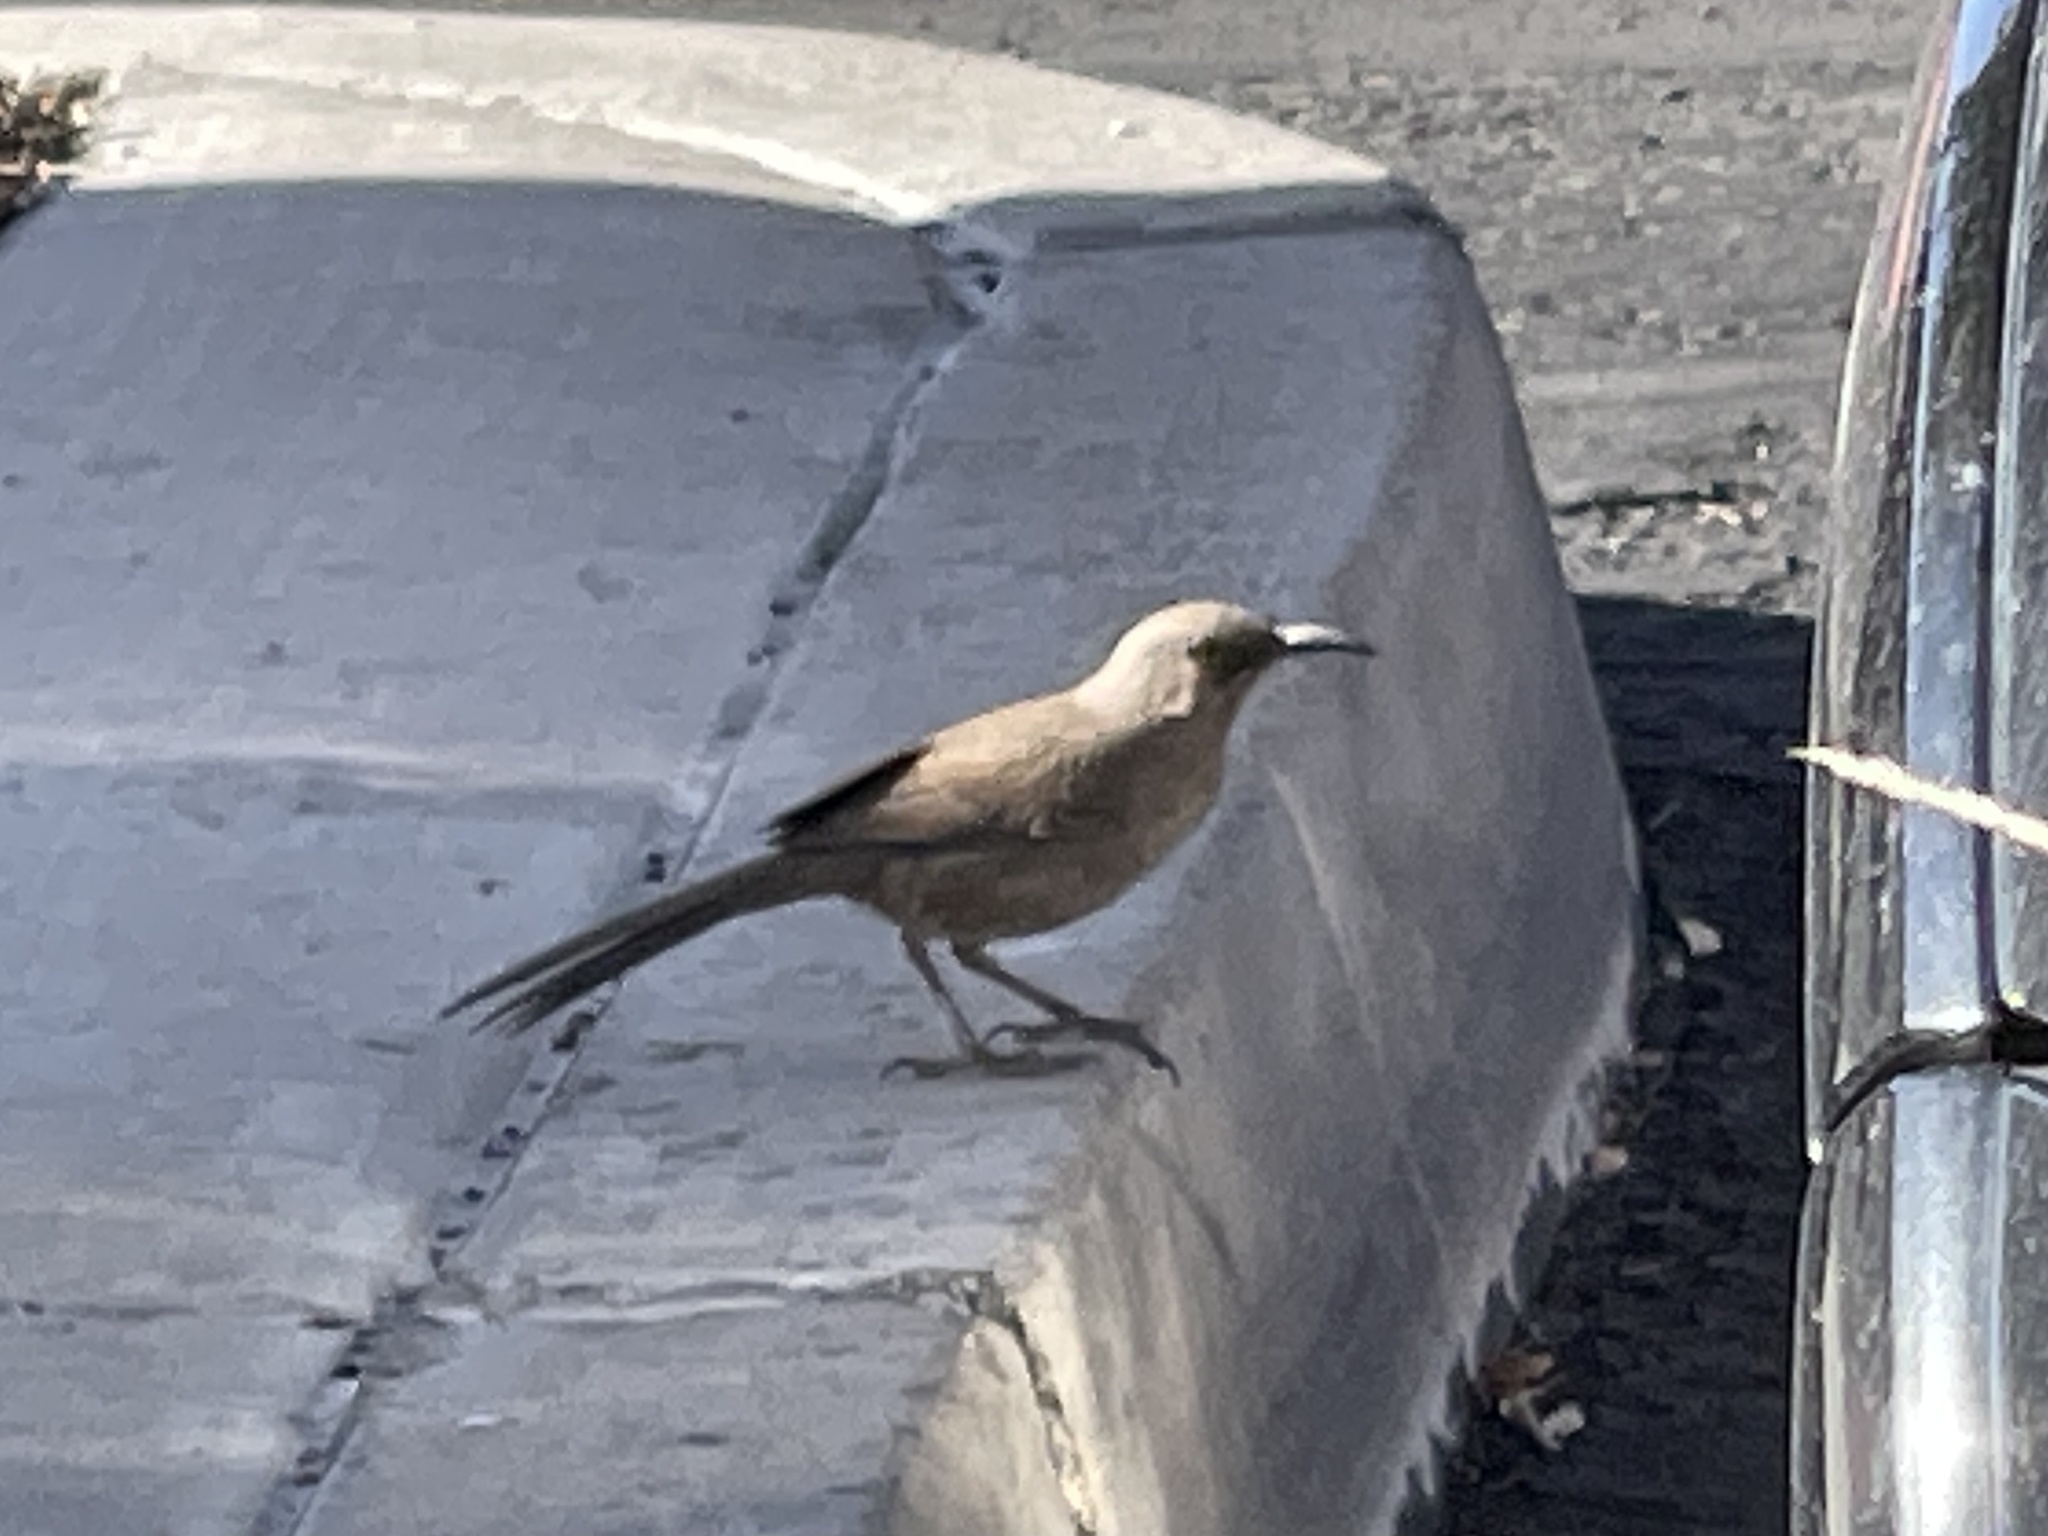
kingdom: Animalia
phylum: Chordata
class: Aves
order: Passeriformes
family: Mimidae
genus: Toxostoma
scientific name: Toxostoma curvirostre
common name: Curve-billed thrasher
